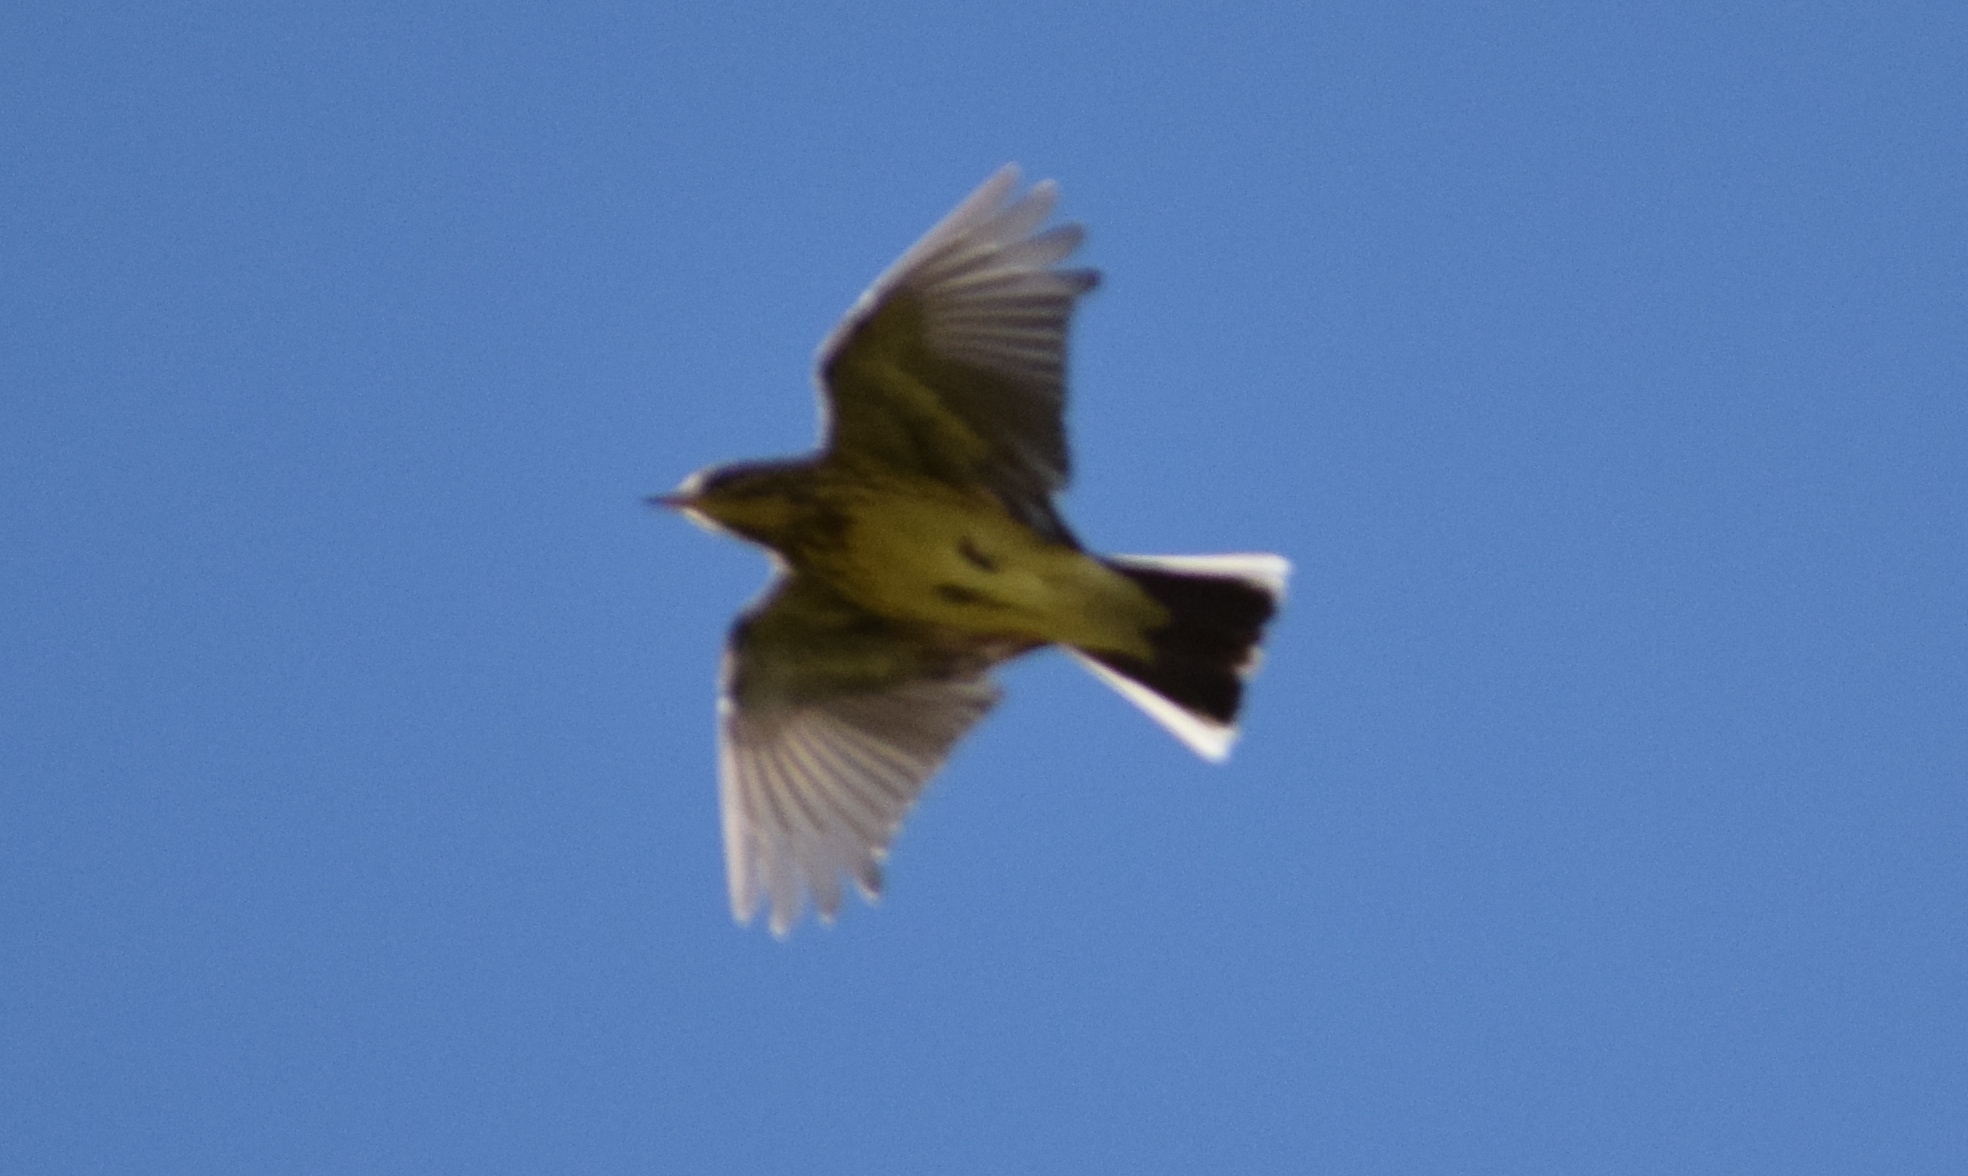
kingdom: Animalia
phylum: Chordata
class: Aves
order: Passeriformes
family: Motacillidae
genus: Anthus
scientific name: Anthus spinoletta
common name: Water pipit
